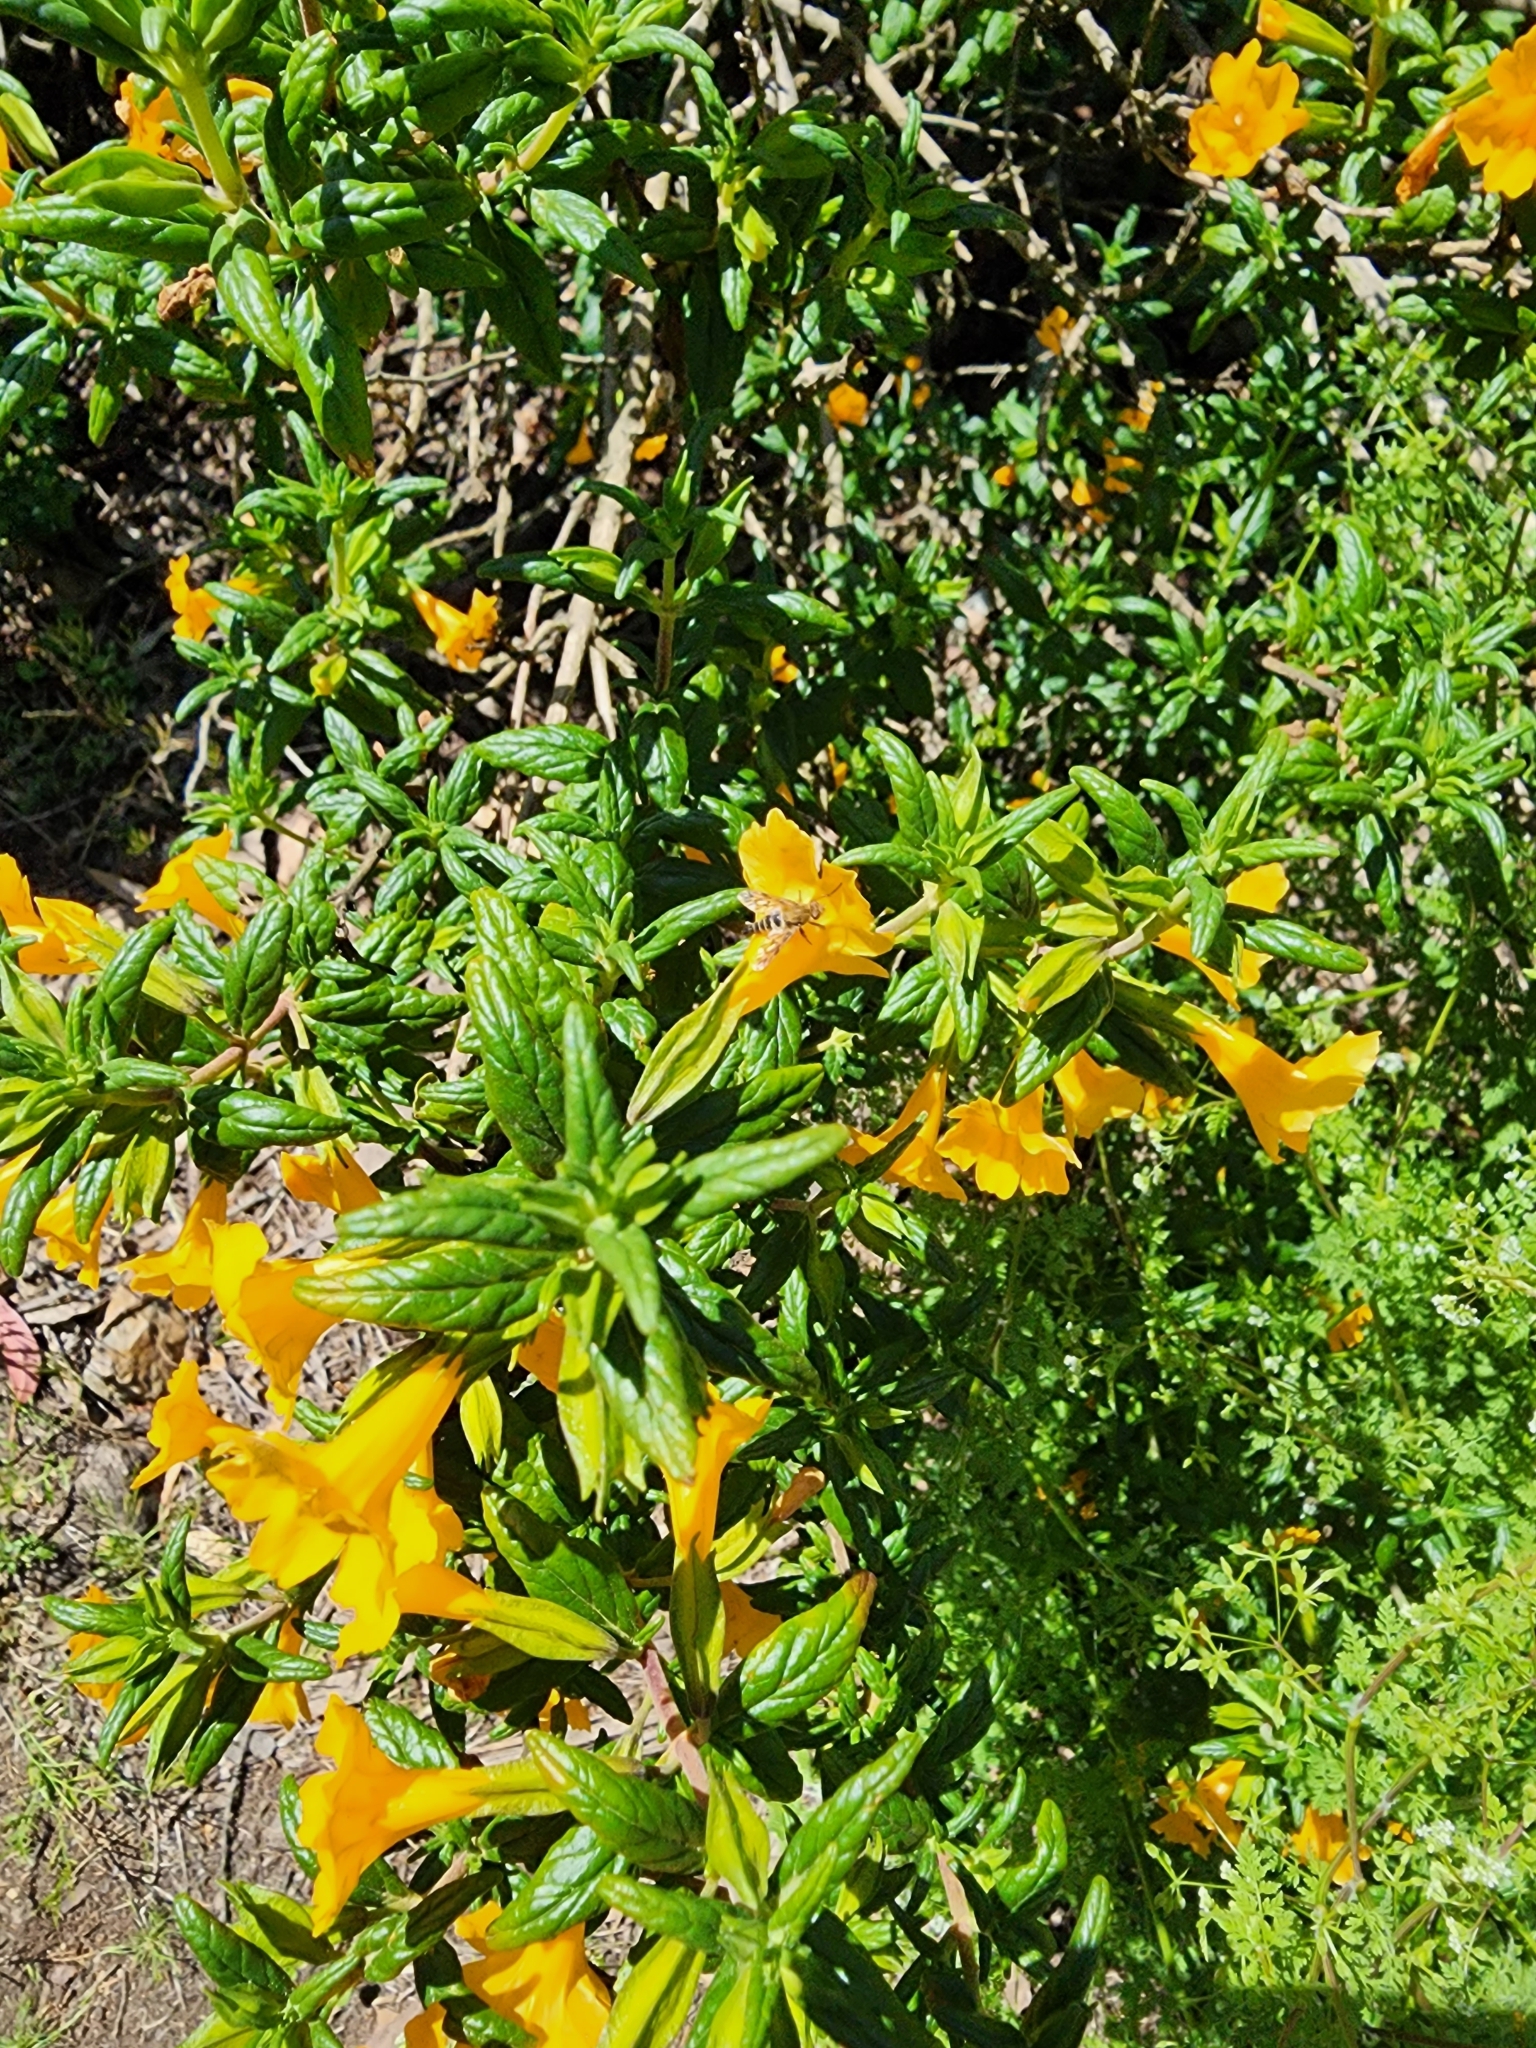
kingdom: Plantae
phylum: Tracheophyta
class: Magnoliopsida
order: Lamiales
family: Phrymaceae
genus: Diplacus
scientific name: Diplacus aurantiacus
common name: Bush monkey-flower
